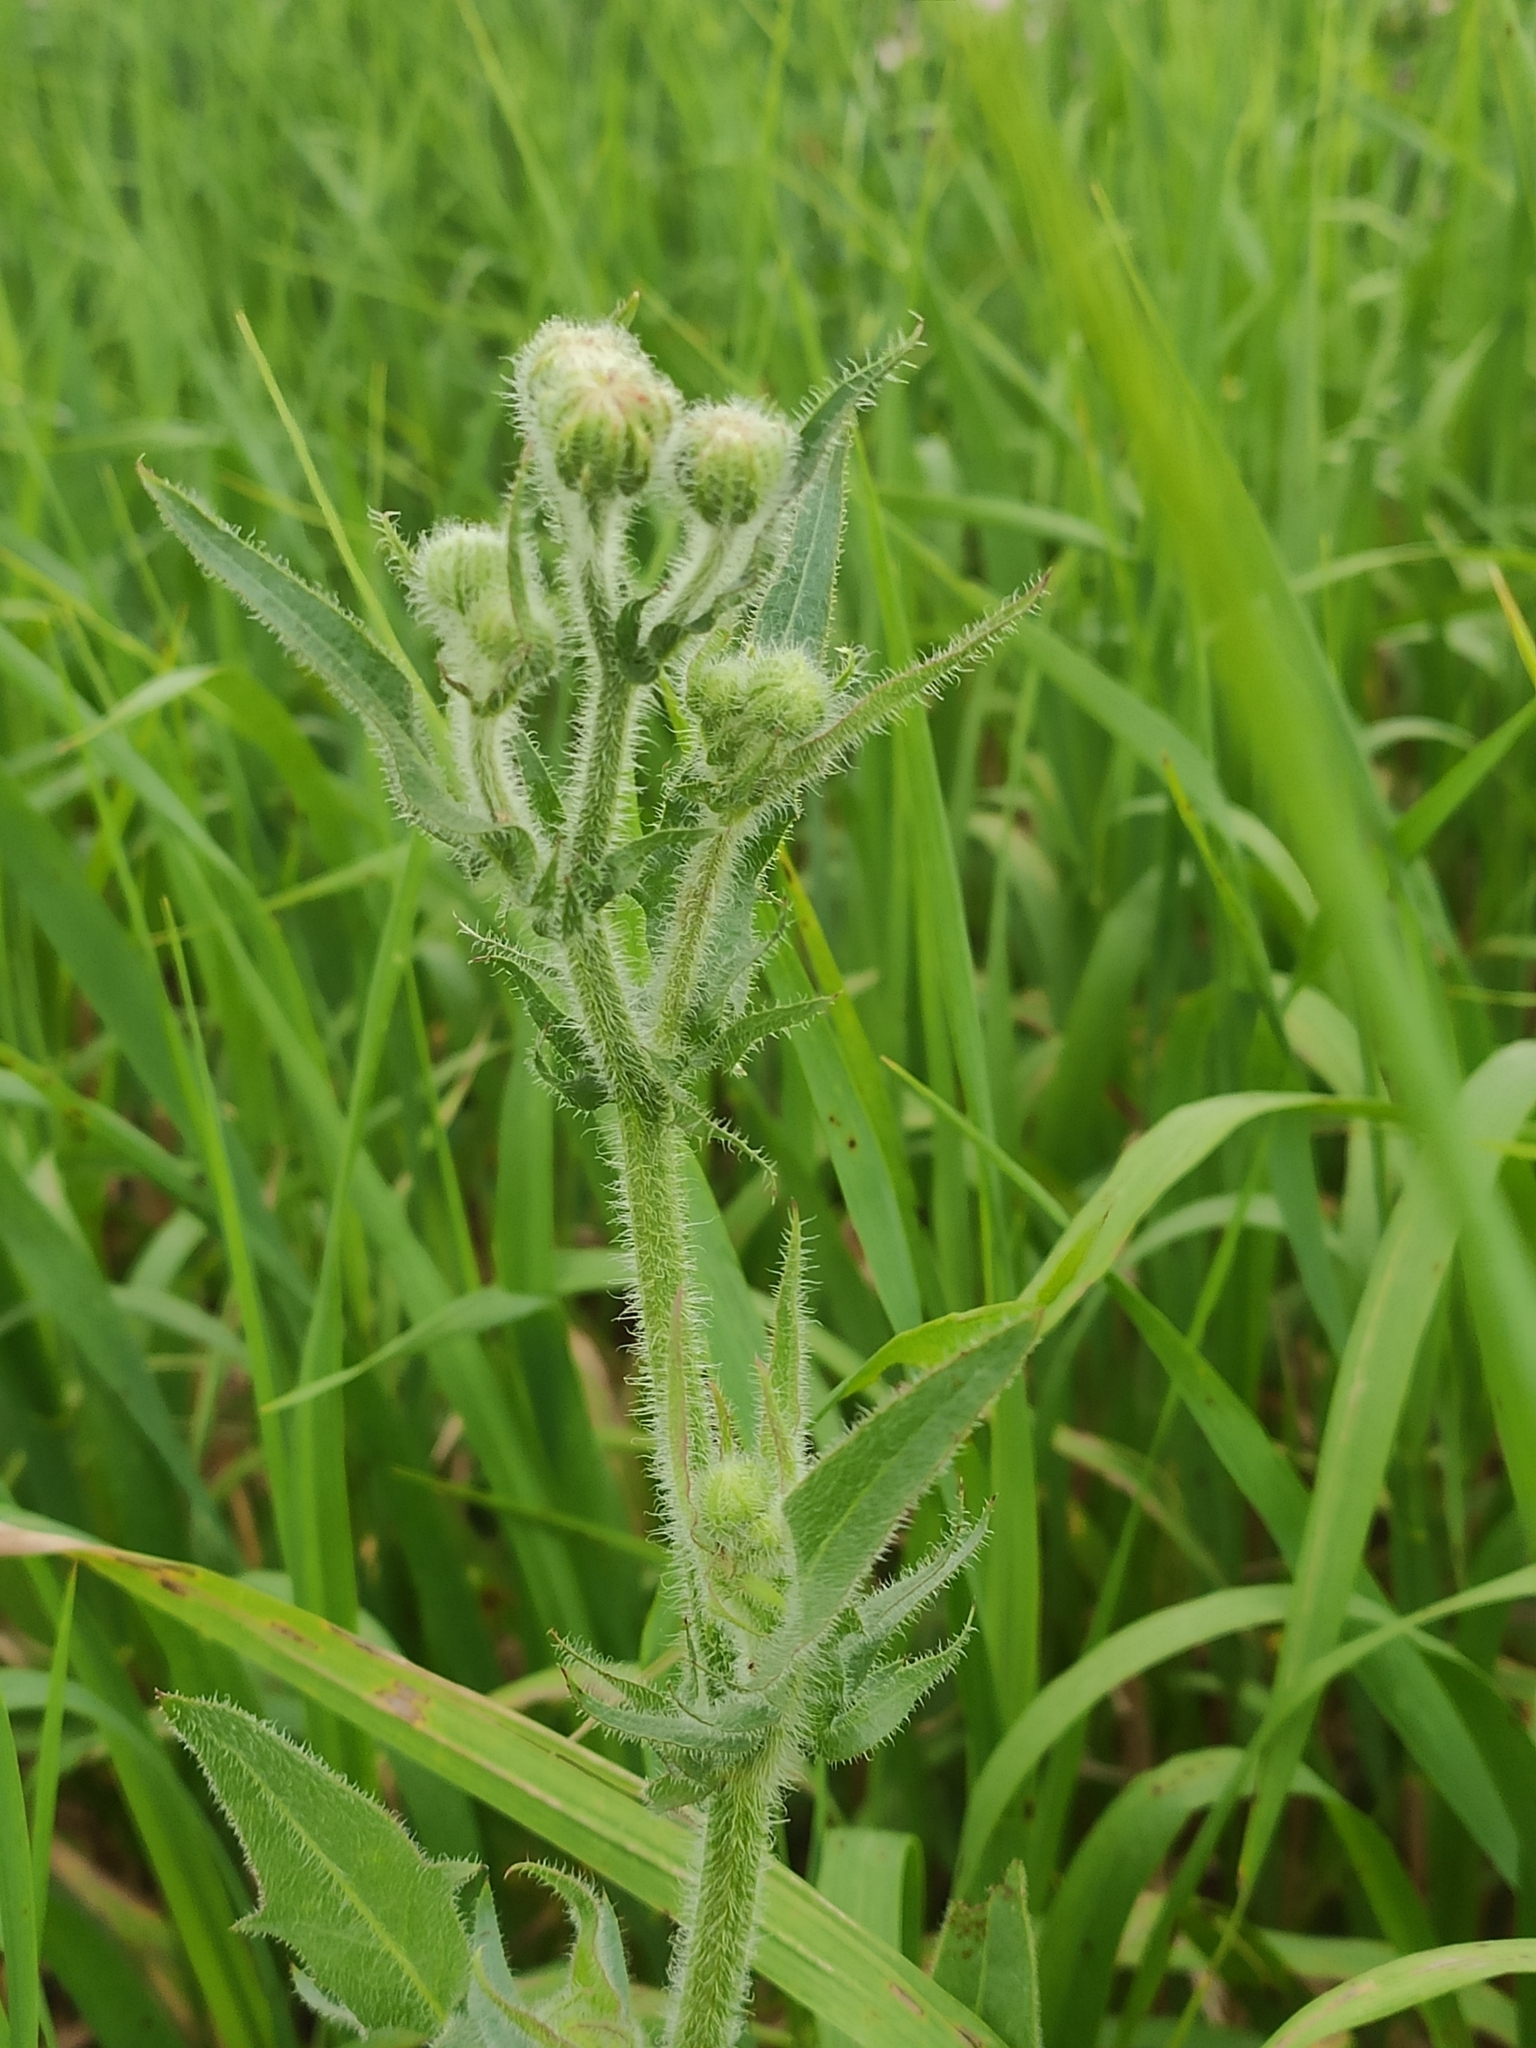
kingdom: Plantae
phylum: Tracheophyta
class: Magnoliopsida
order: Asterales
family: Asteraceae
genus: Crepis
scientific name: Crepis foetida
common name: Stinking hawk's-beard
